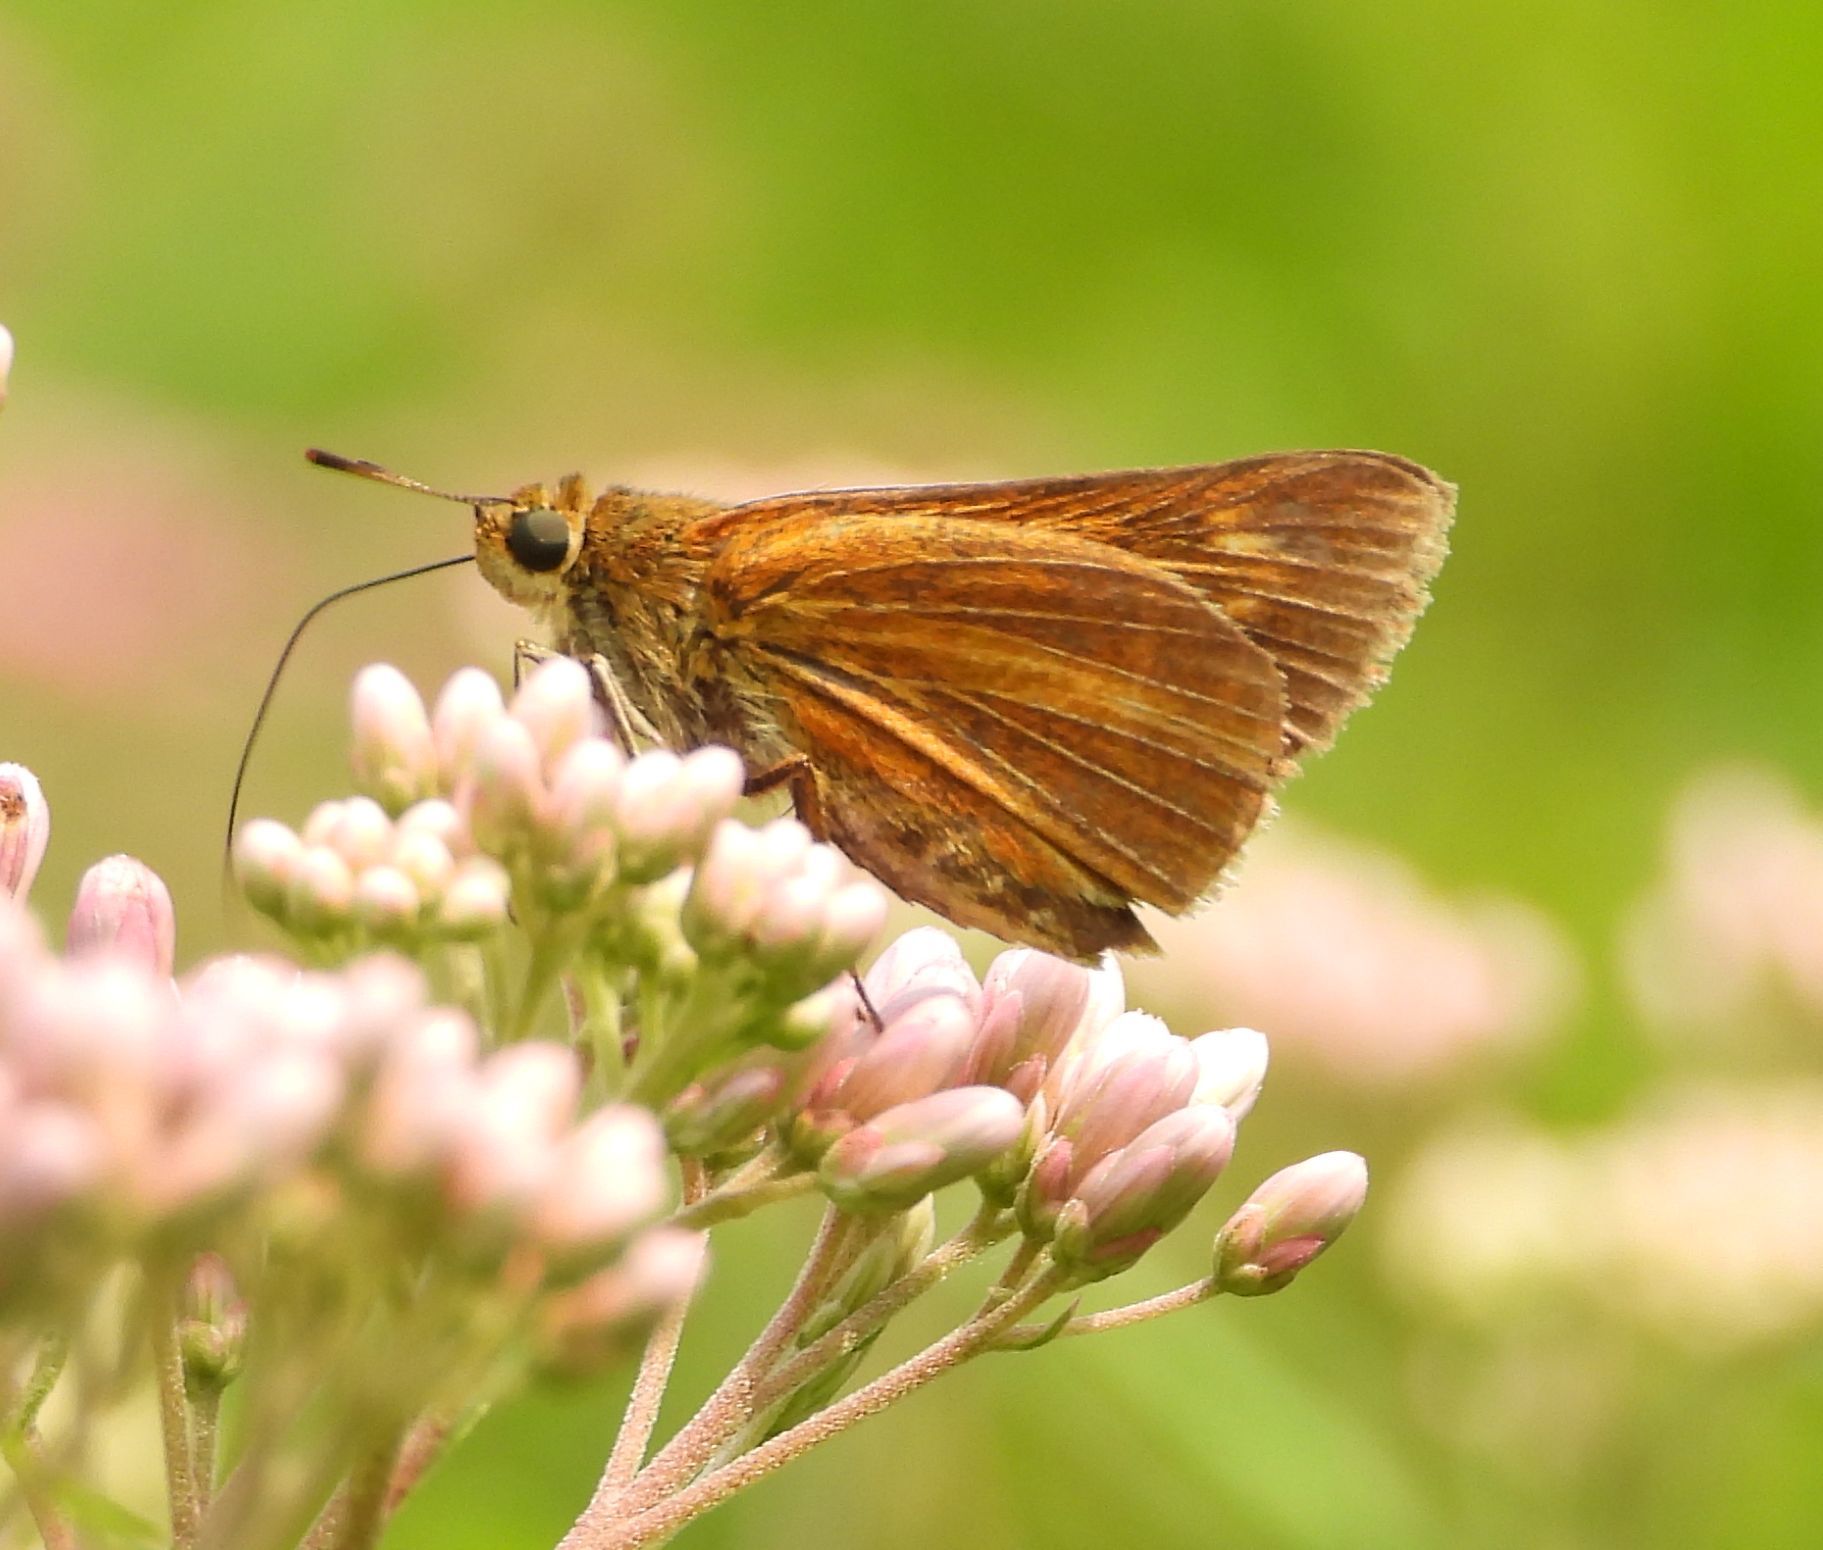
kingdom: Animalia
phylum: Arthropoda
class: Insecta
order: Lepidoptera
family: Hesperiidae
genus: Euphyes
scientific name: Euphyes dion
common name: Dion skipper
